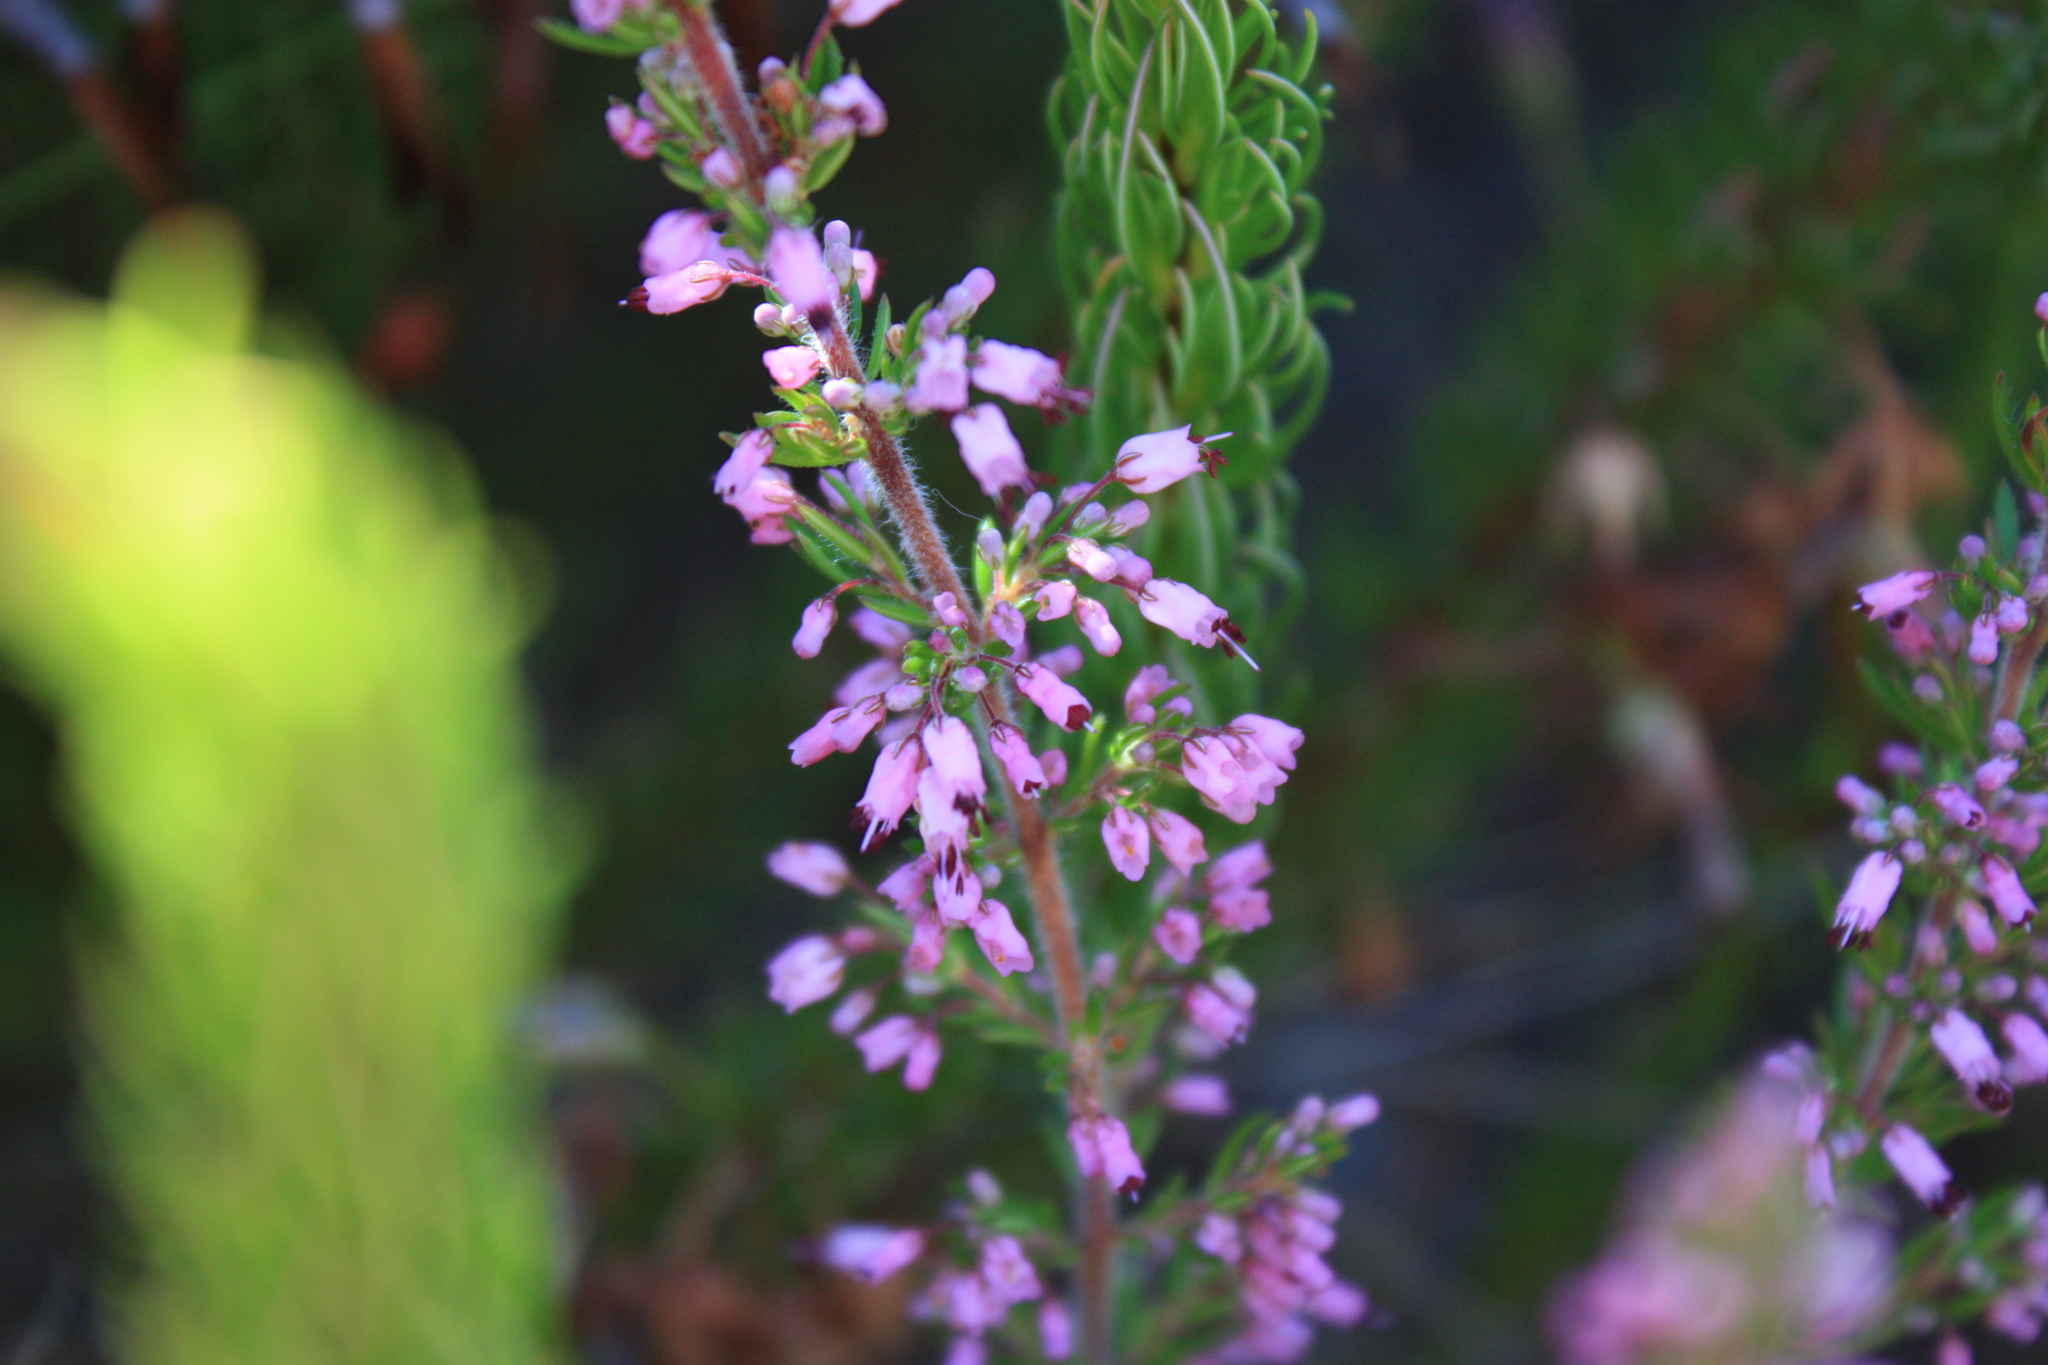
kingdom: Plantae
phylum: Tracheophyta
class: Magnoliopsida
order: Ericales
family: Ericaceae
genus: Erica
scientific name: Erica nudiflora
